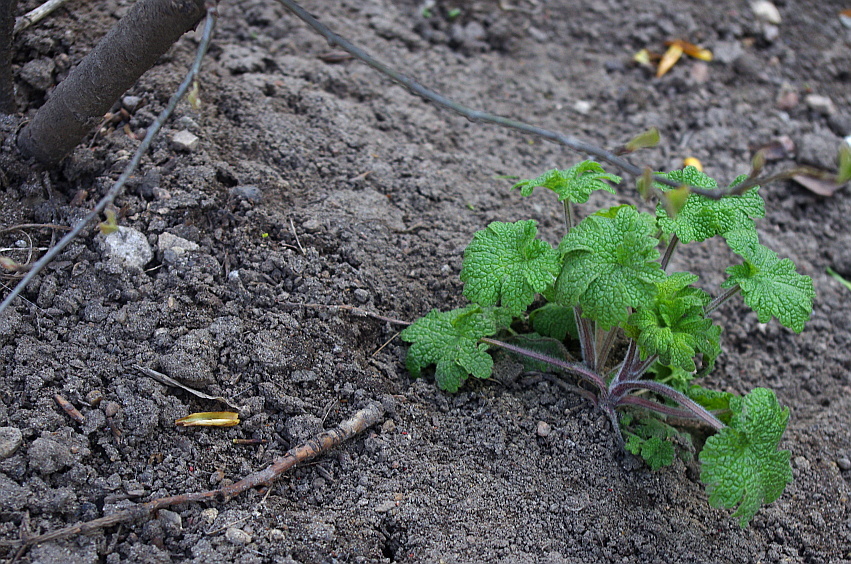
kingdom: Plantae
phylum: Tracheophyta
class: Magnoliopsida
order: Lamiales
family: Lamiaceae
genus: Leonurus
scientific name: Leonurus quinquelobatus
